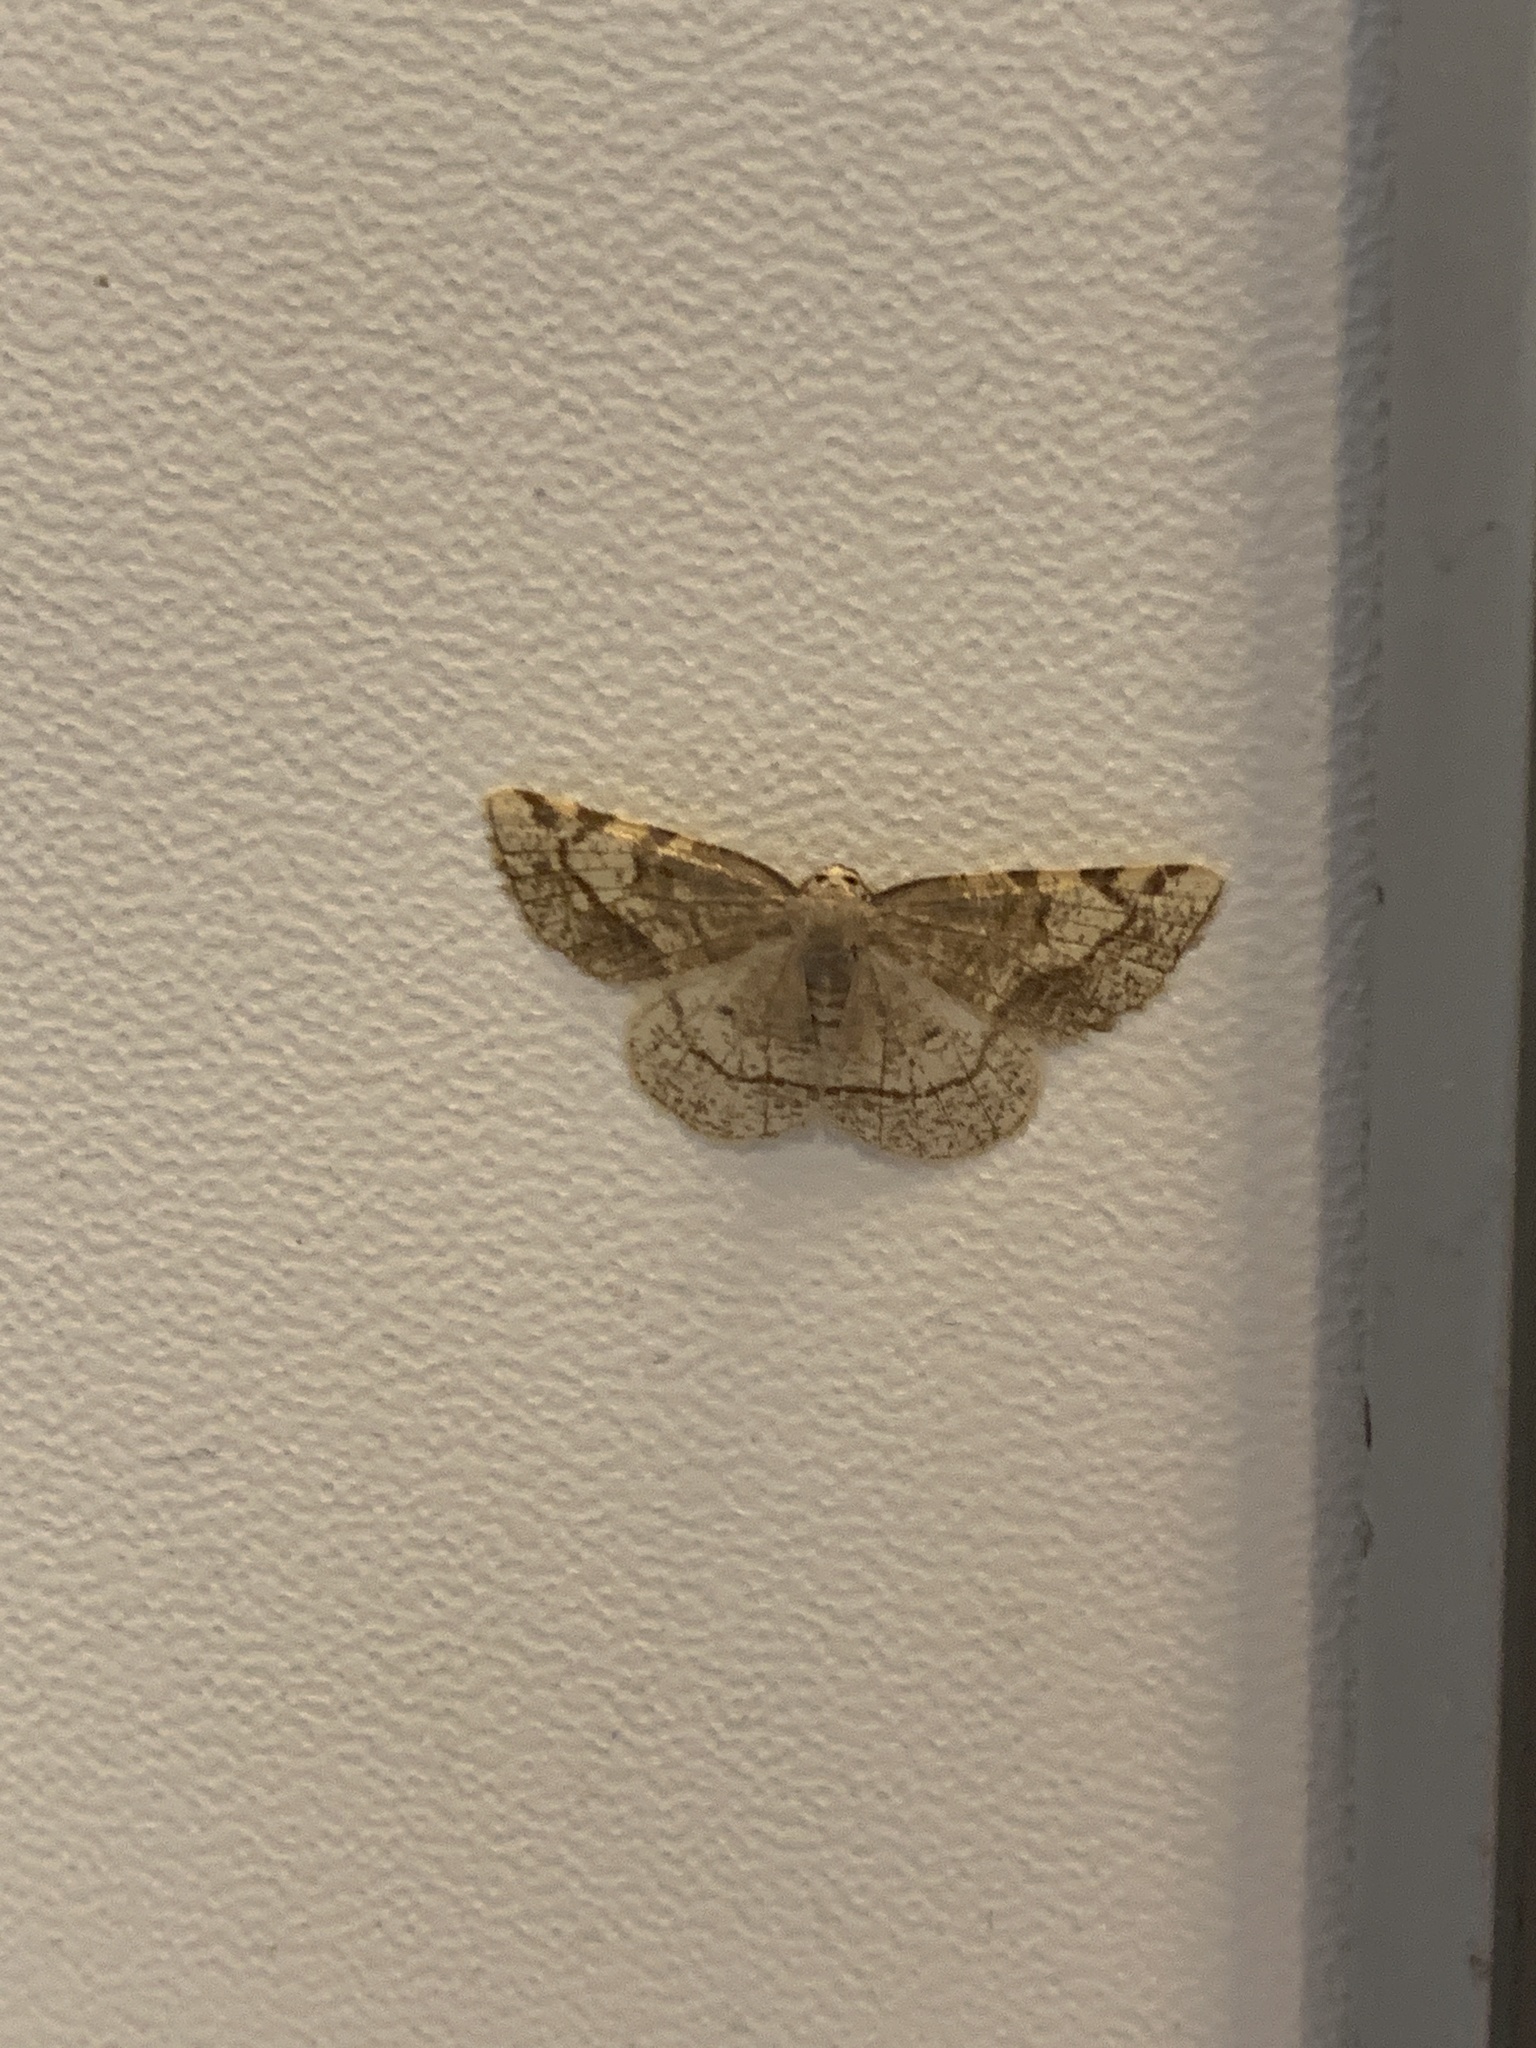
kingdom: Animalia
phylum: Arthropoda
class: Insecta
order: Lepidoptera
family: Geometridae
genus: Stegania
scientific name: Stegania trimaculata
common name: Dorset cream wave
